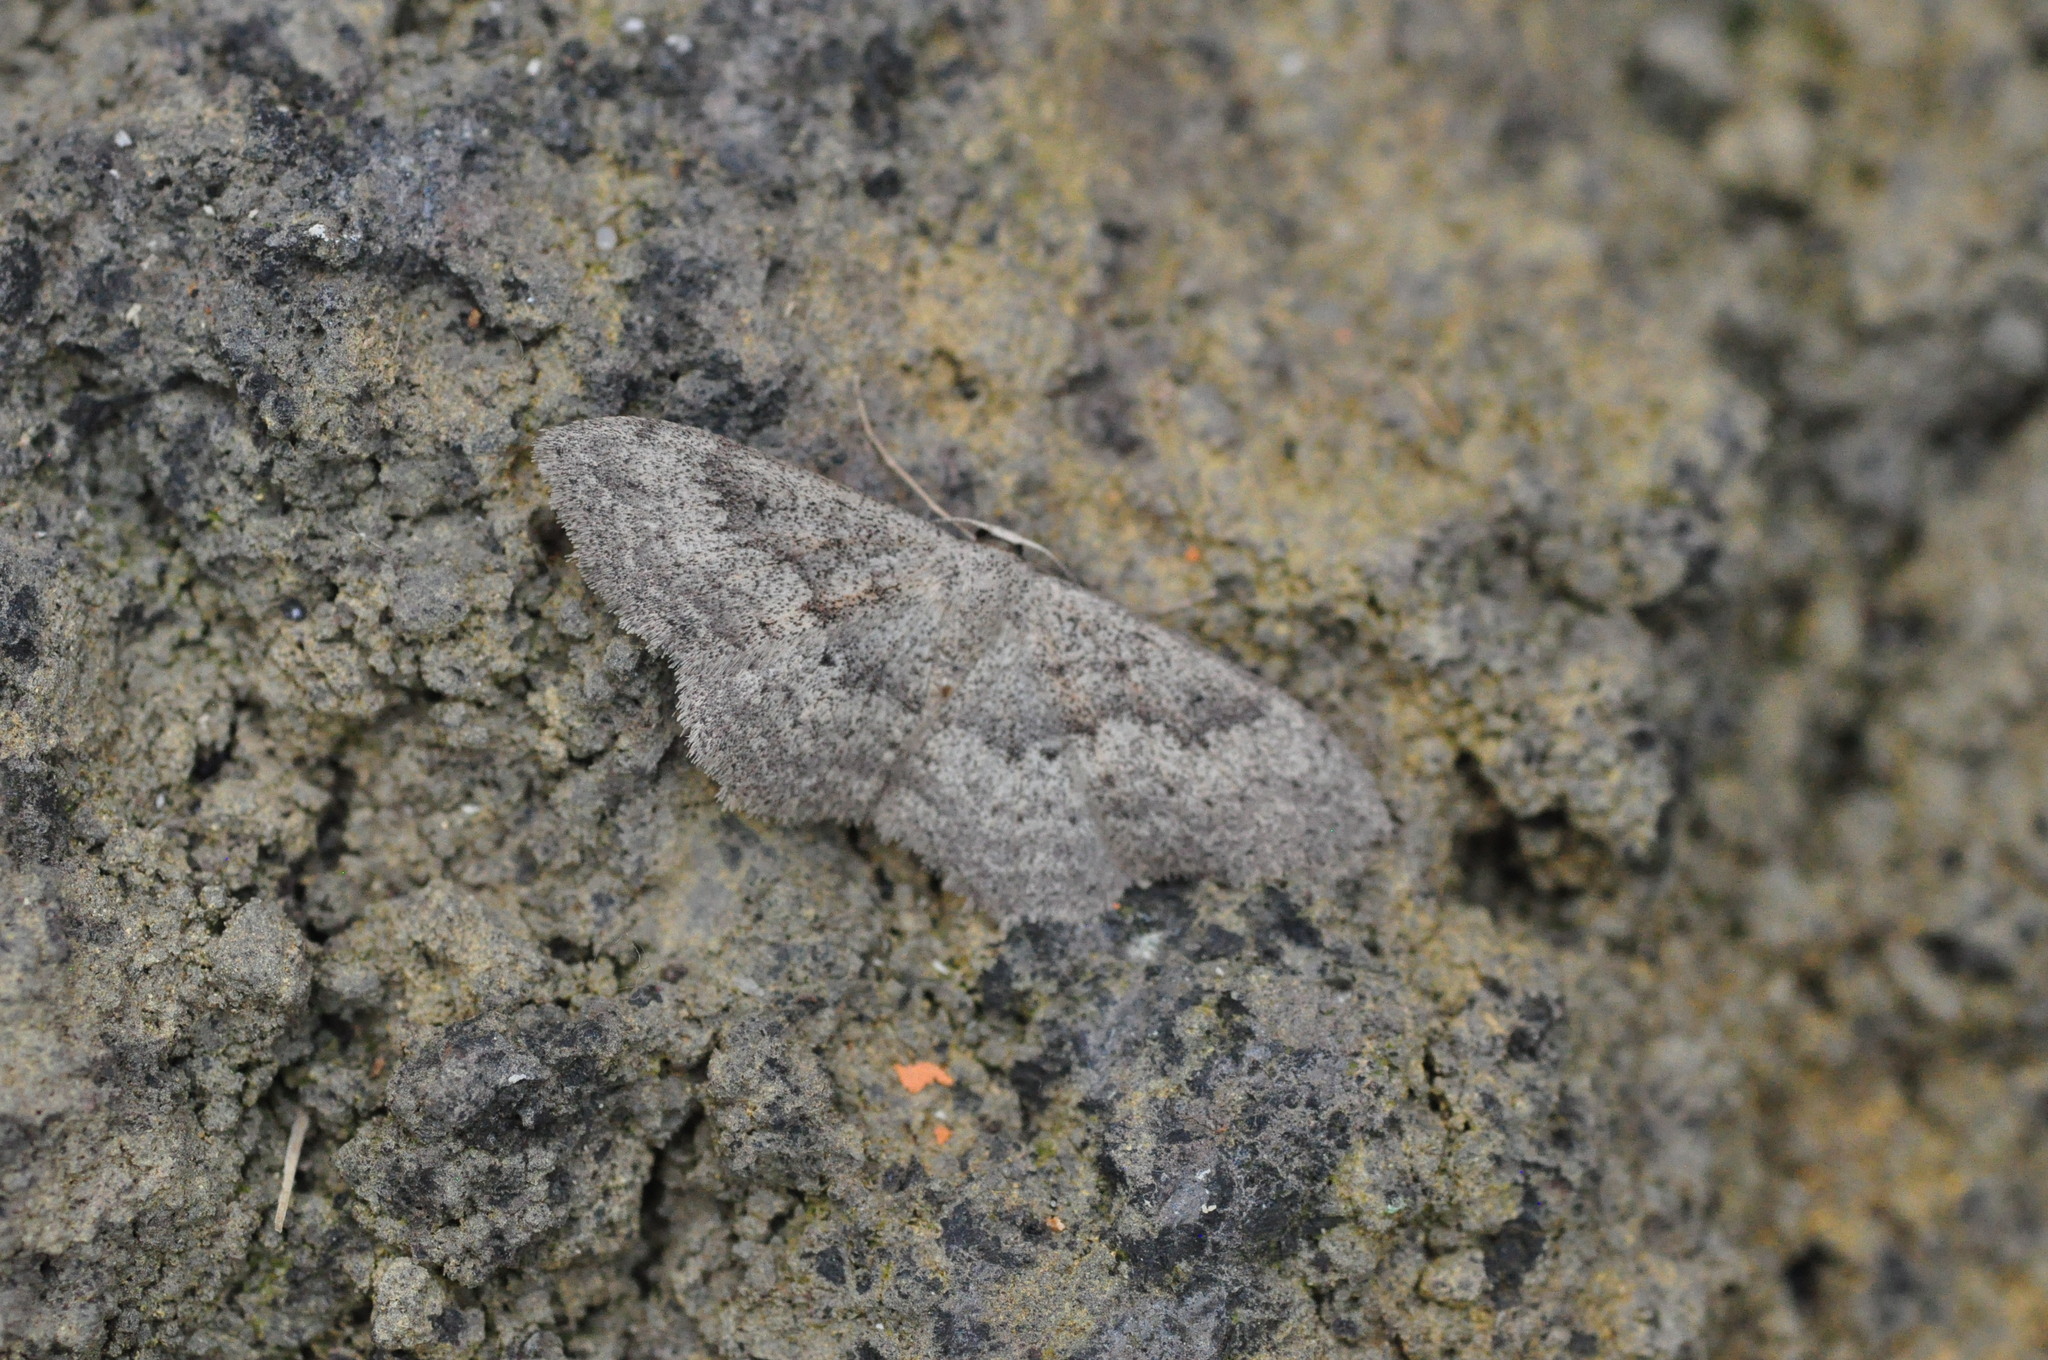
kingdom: Animalia
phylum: Arthropoda
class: Insecta
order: Lepidoptera
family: Geometridae
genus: Scopula
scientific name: Scopula guancharia
